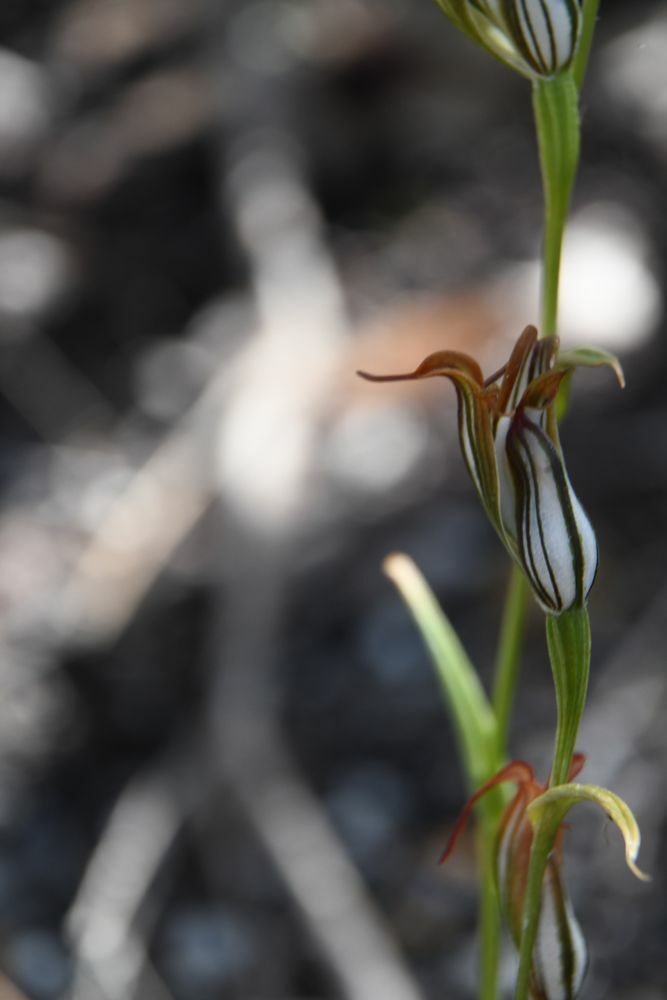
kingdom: Plantae
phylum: Tracheophyta
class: Liliopsida
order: Asparagales
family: Orchidaceae
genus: Pterostylis
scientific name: Pterostylis recurva
